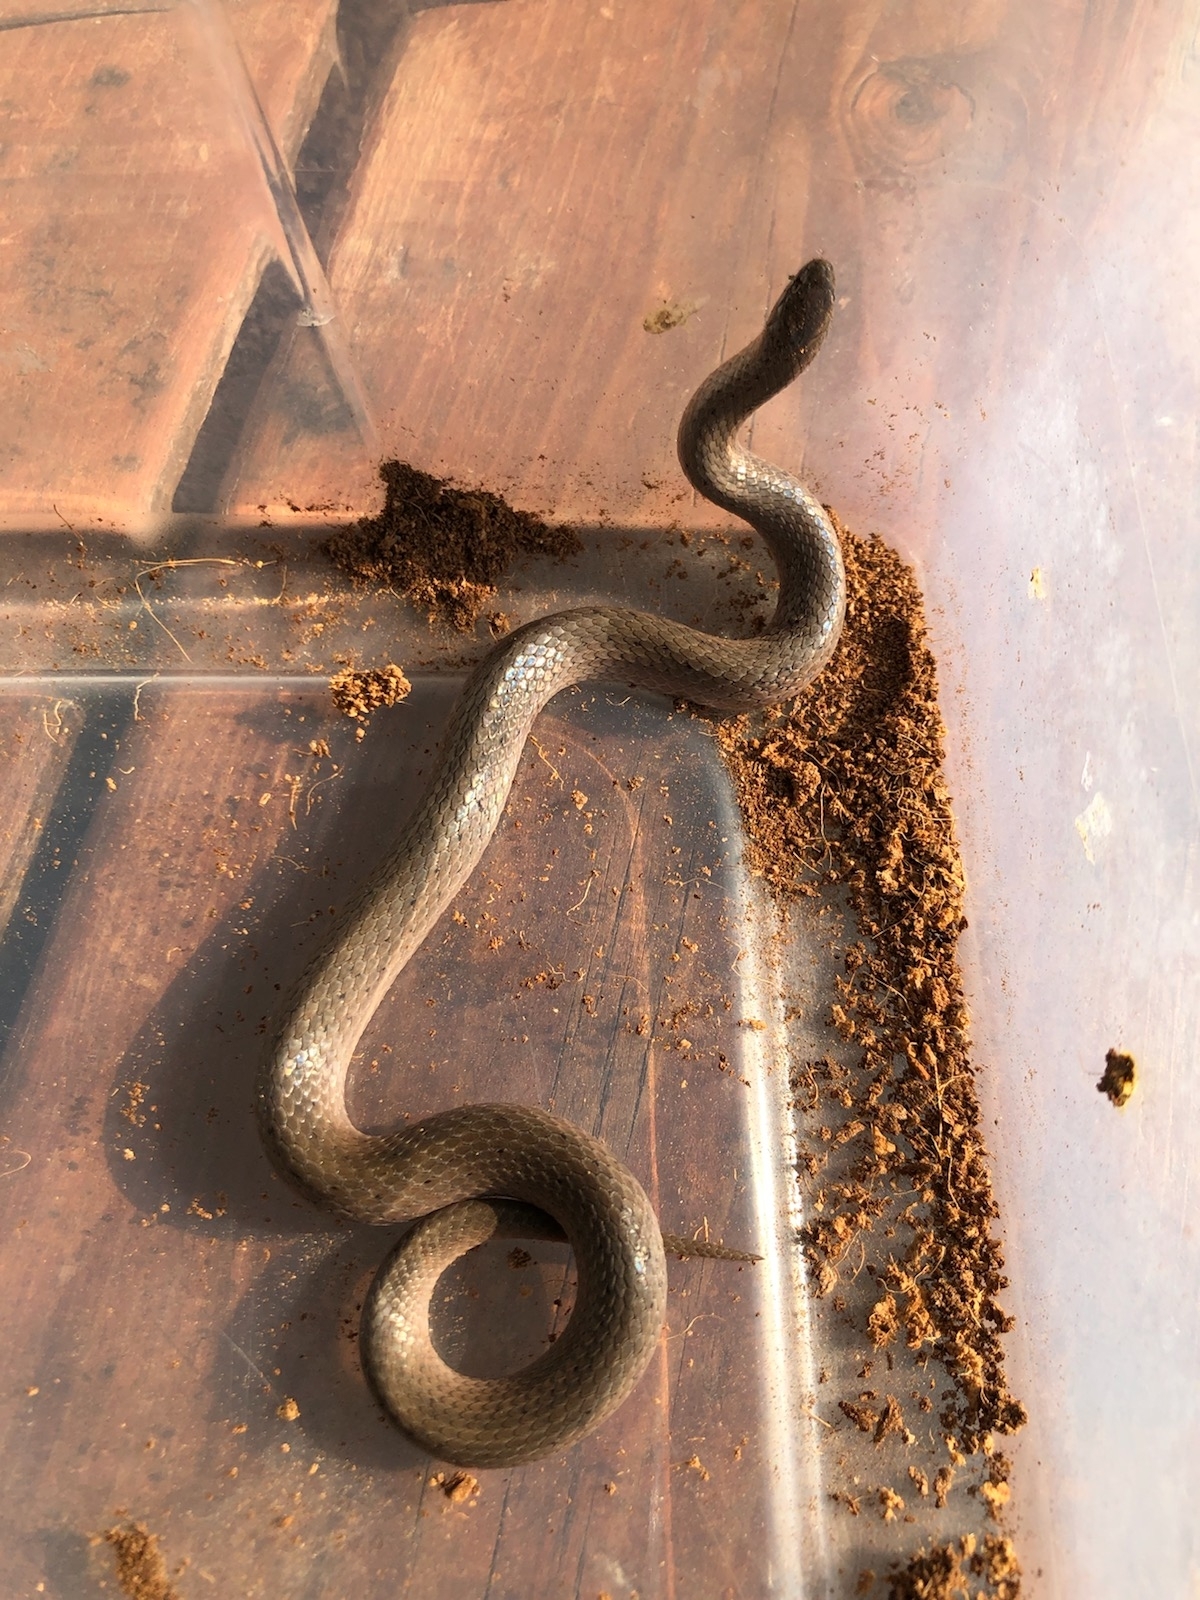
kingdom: Animalia
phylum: Chordata
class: Squamata
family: Colubridae
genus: Virginia
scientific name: Virginia valeriae
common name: Smooth earth snake
